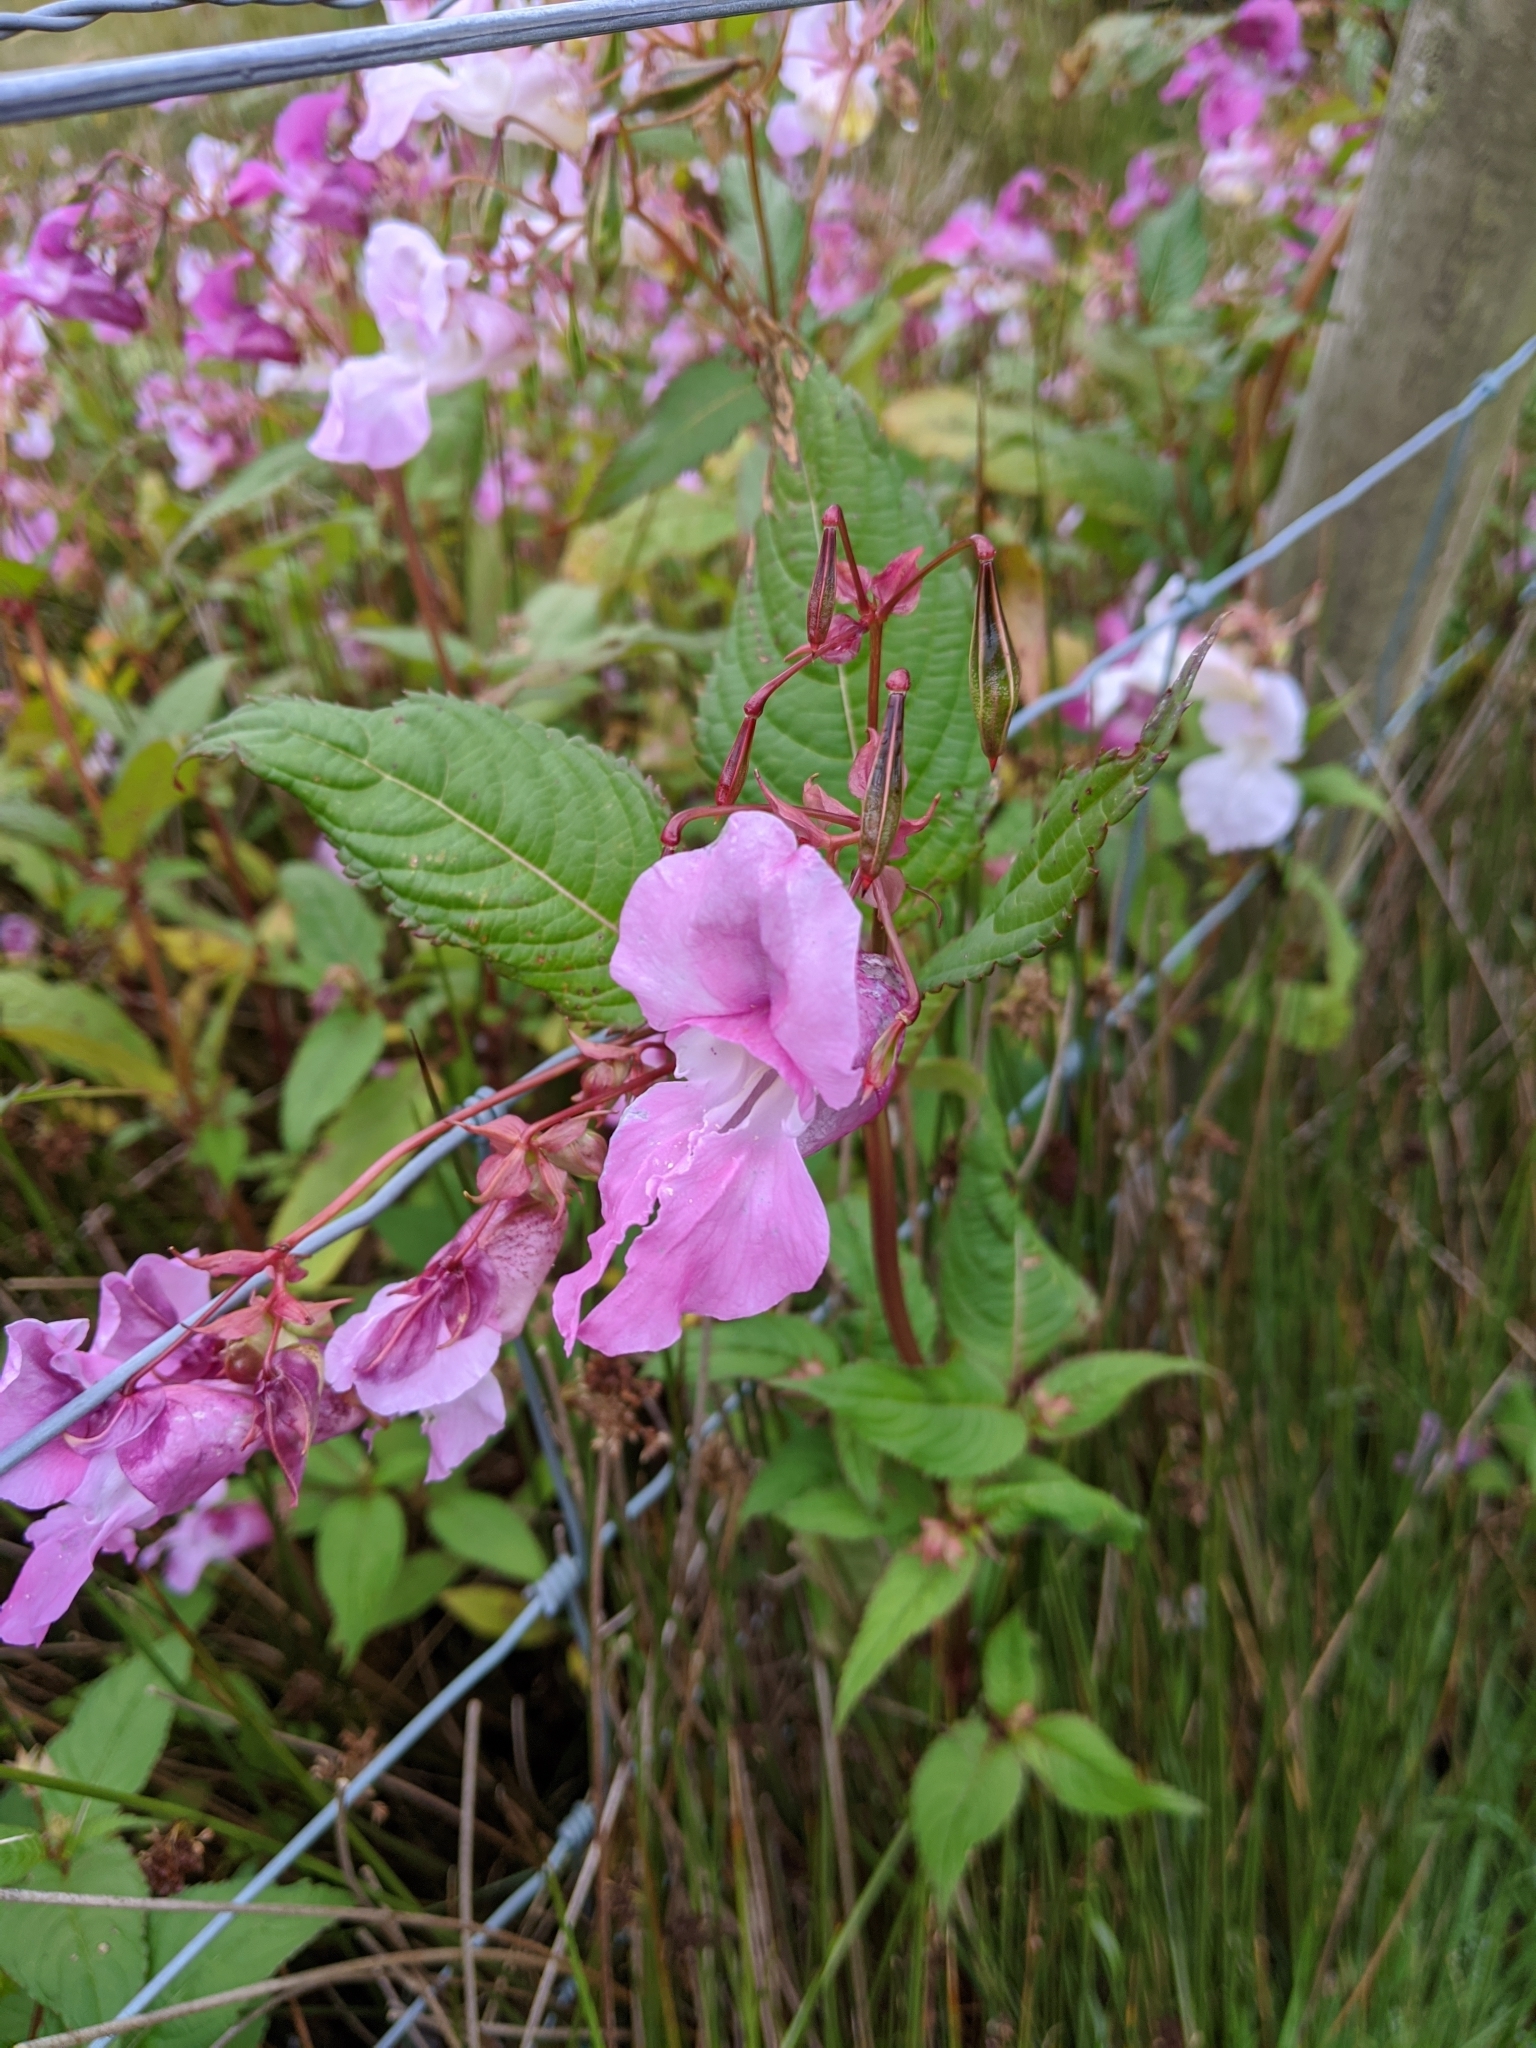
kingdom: Plantae
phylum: Tracheophyta
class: Magnoliopsida
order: Ericales
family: Balsaminaceae
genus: Impatiens
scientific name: Impatiens glandulifera
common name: Himalayan balsam
